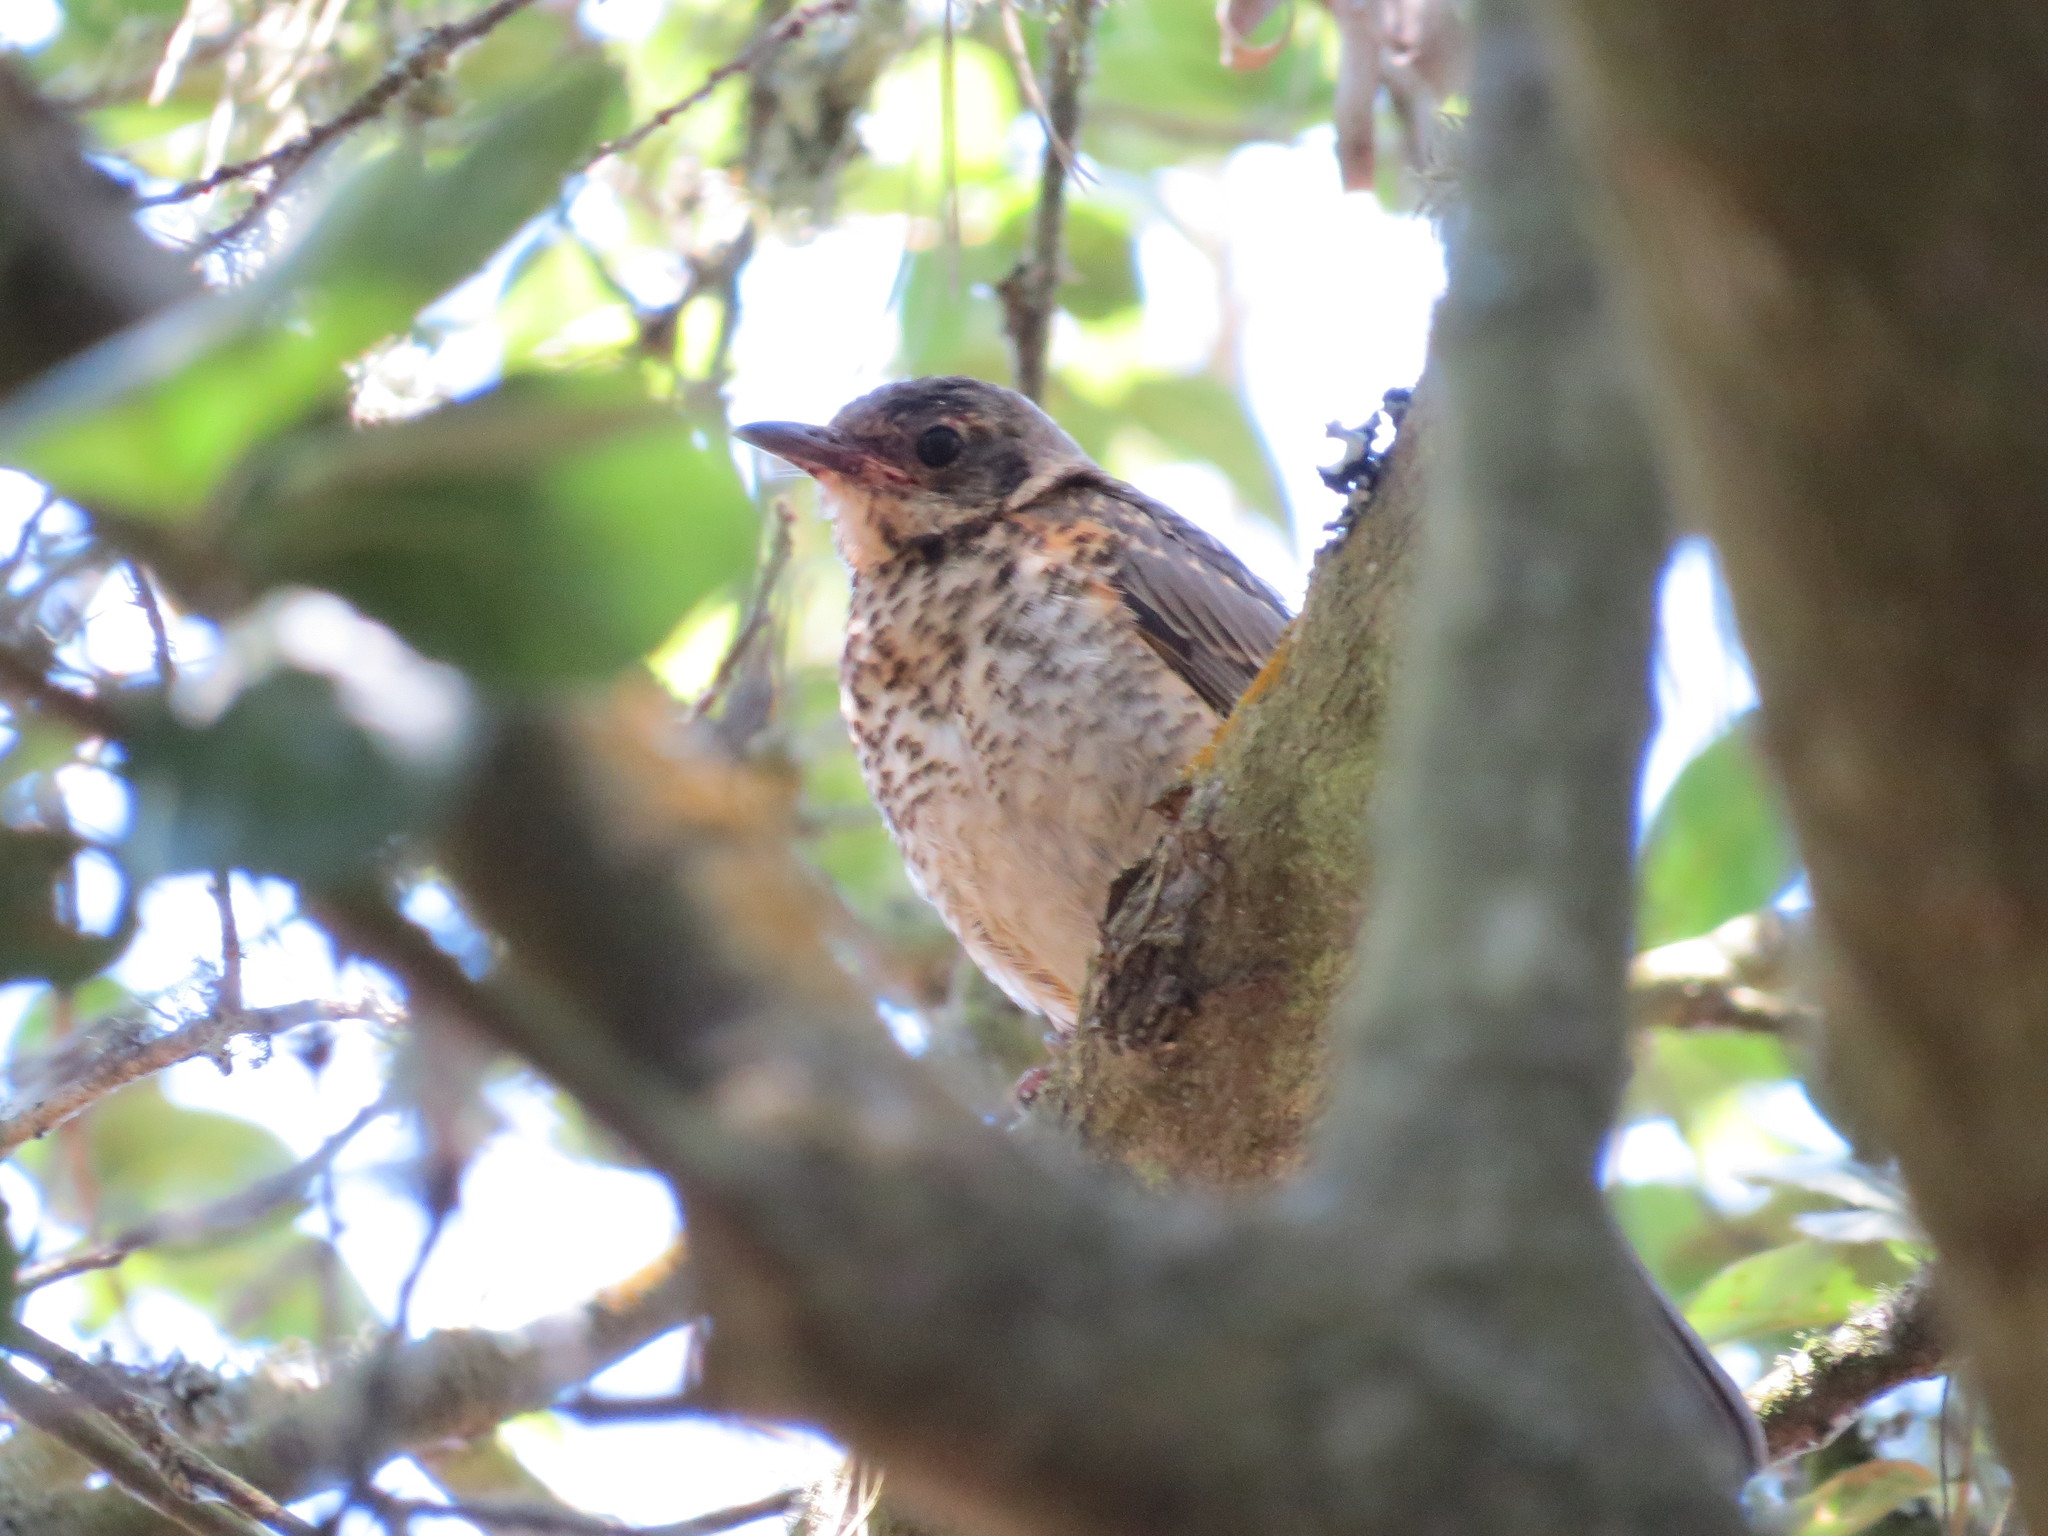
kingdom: Animalia
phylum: Chordata
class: Aves
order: Passeriformes
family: Turdidae
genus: Turdus
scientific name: Turdus migratorius
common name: American robin
